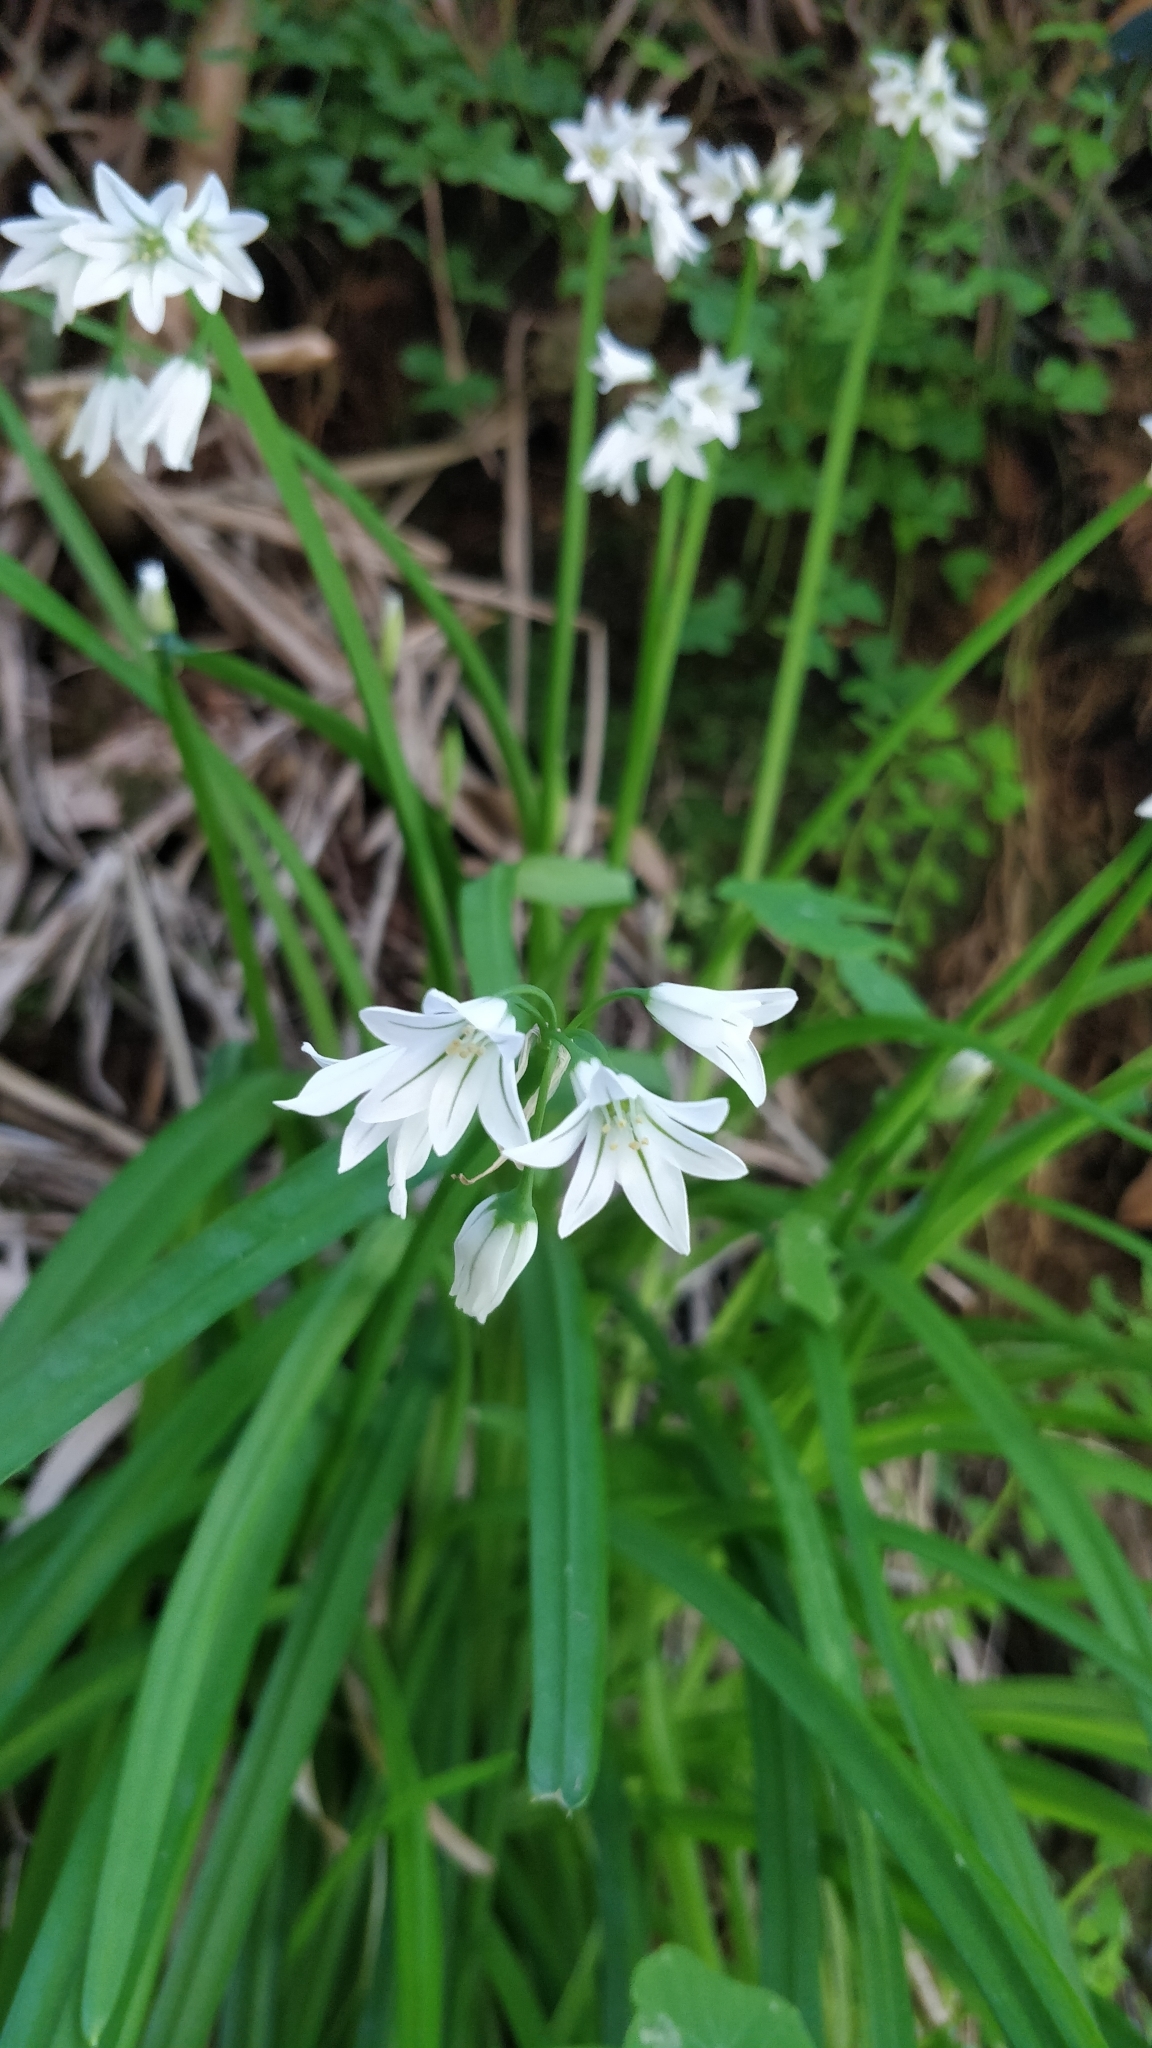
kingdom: Plantae
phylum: Tracheophyta
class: Liliopsida
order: Asparagales
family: Amaryllidaceae
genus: Allium
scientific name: Allium triquetrum
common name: Three-cornered garlic
